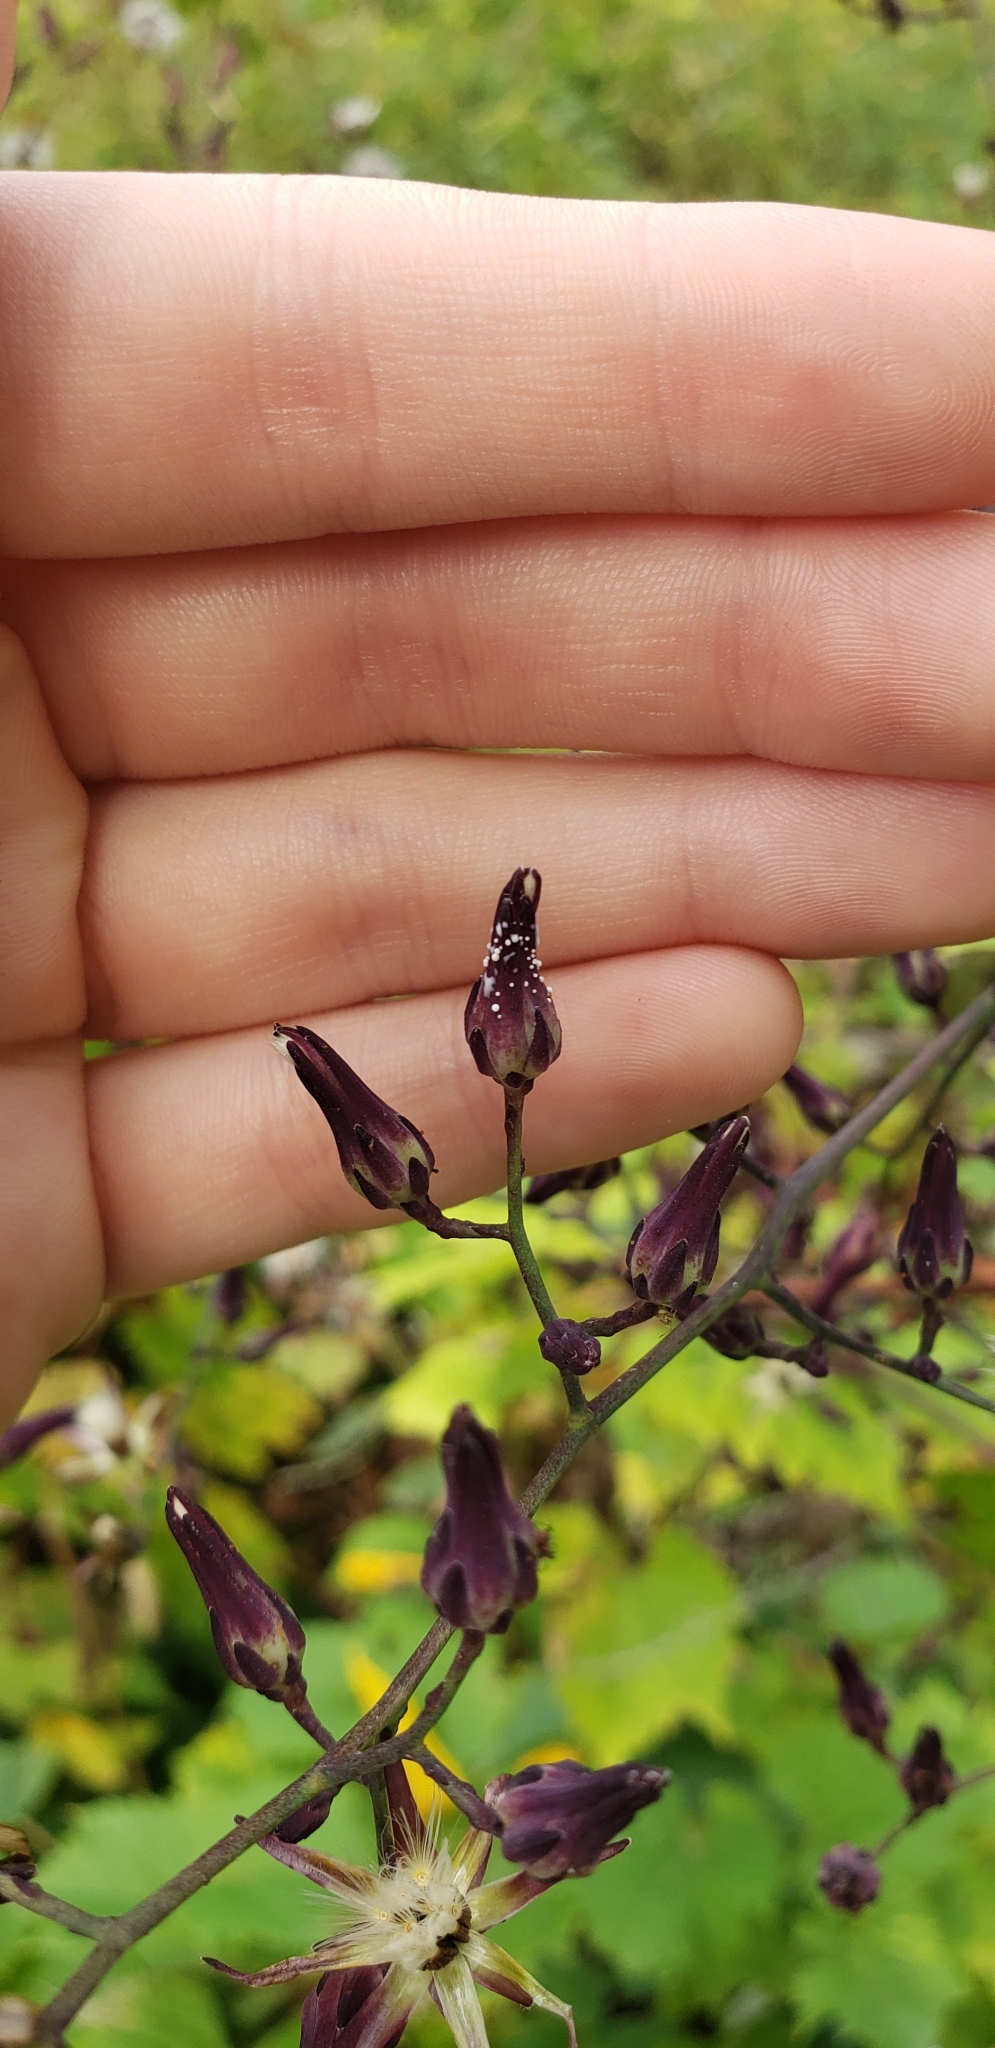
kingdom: Plantae
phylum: Tracheophyta
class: Magnoliopsida
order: Asterales
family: Asteraceae
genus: Lactuca
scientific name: Lactuca floridana
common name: Woodland lettuce
